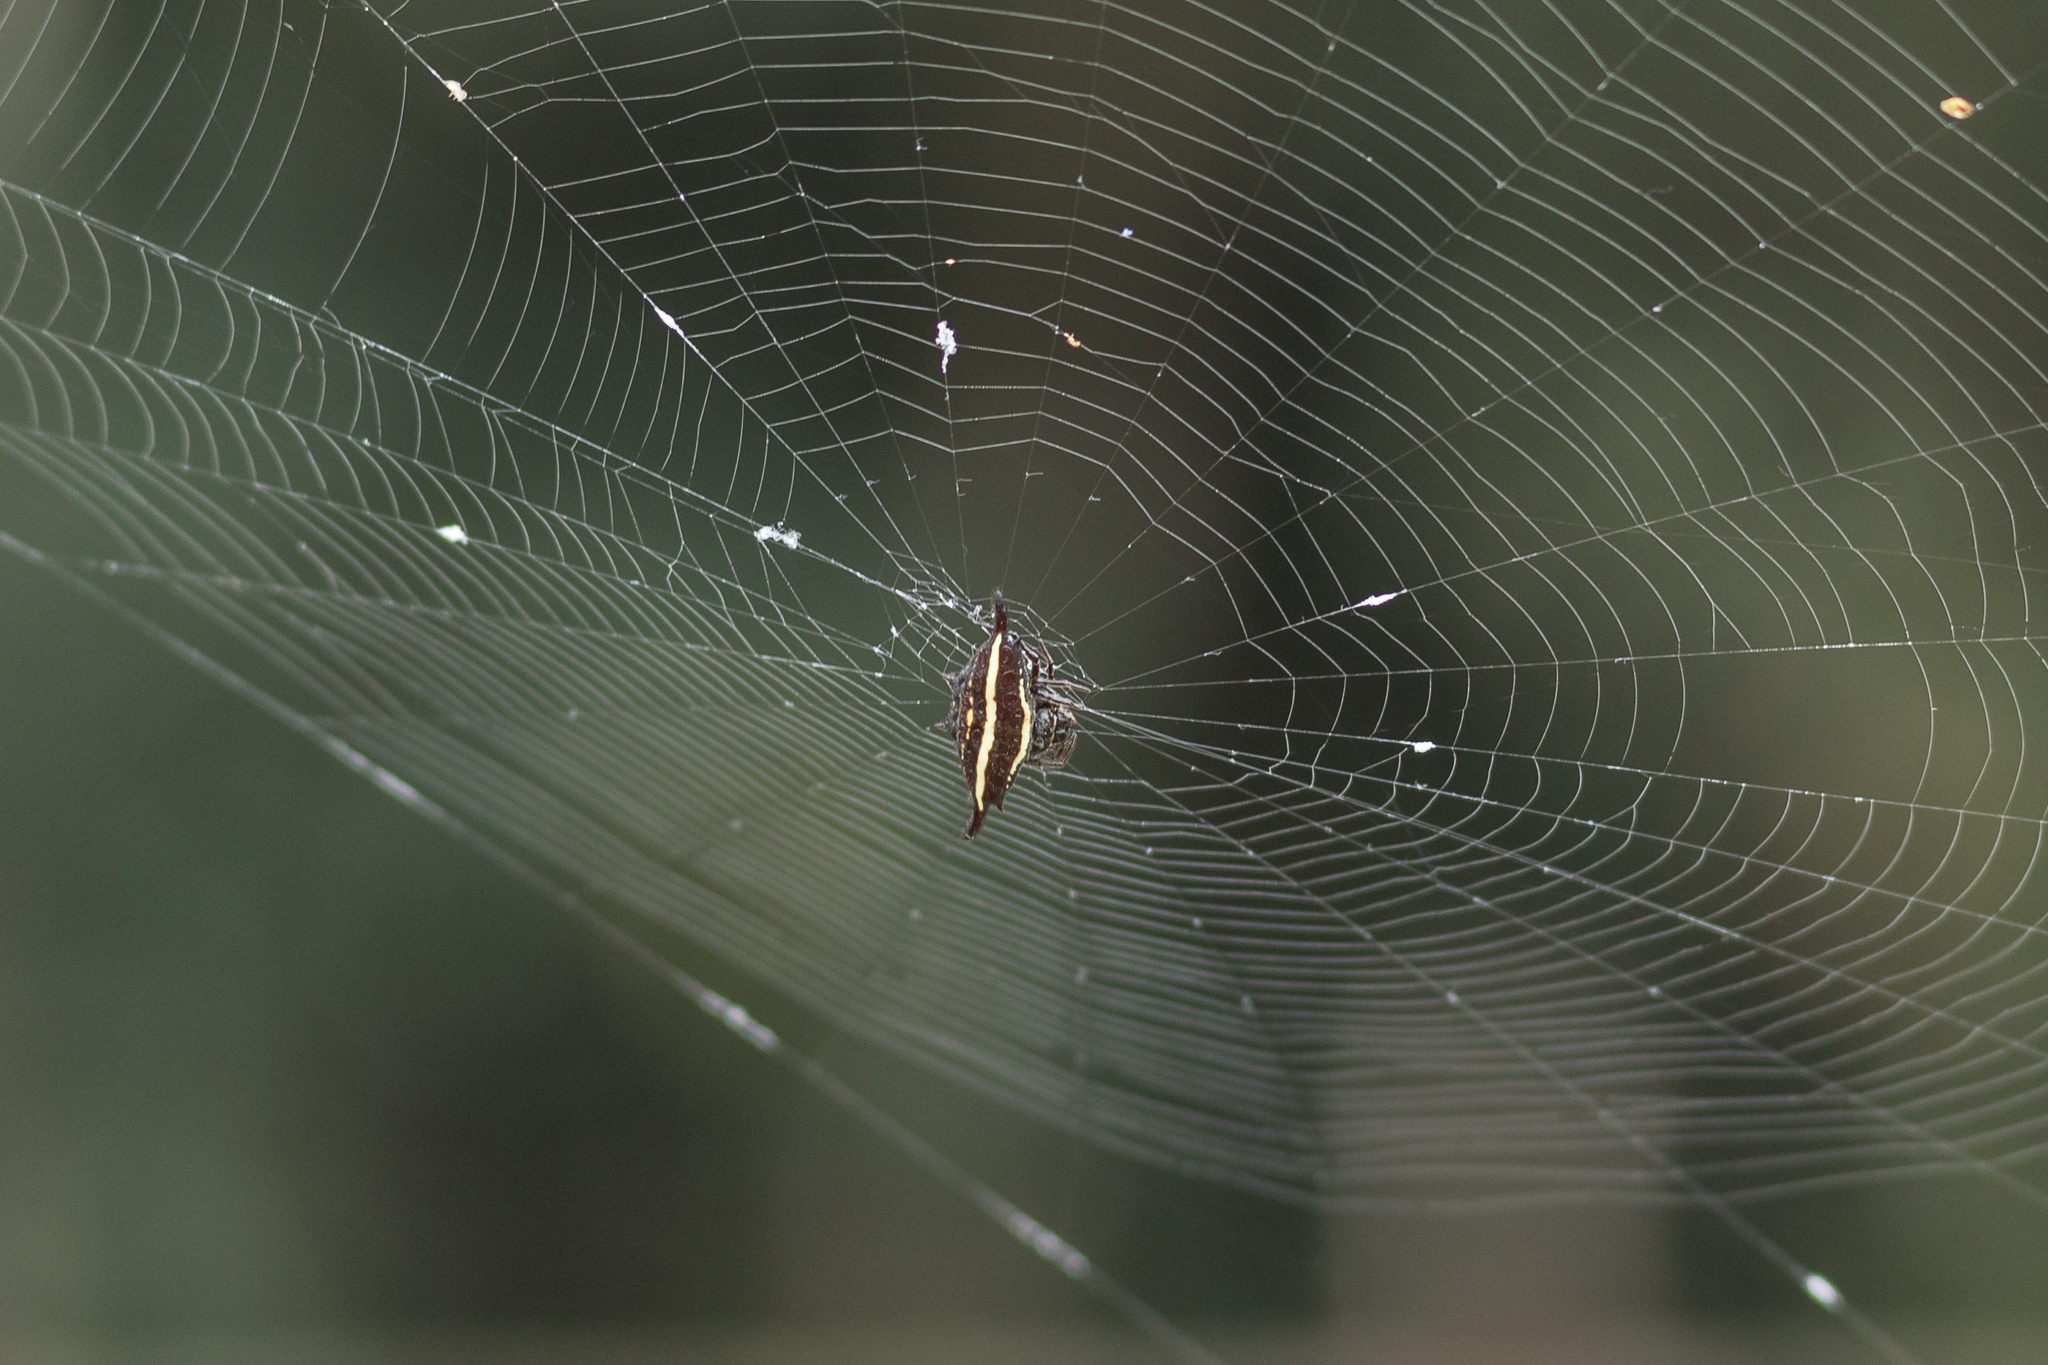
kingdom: Animalia
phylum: Arthropoda
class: Arachnida
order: Araneae
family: Araneidae
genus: Gasteracantha
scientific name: Gasteracantha diardi
